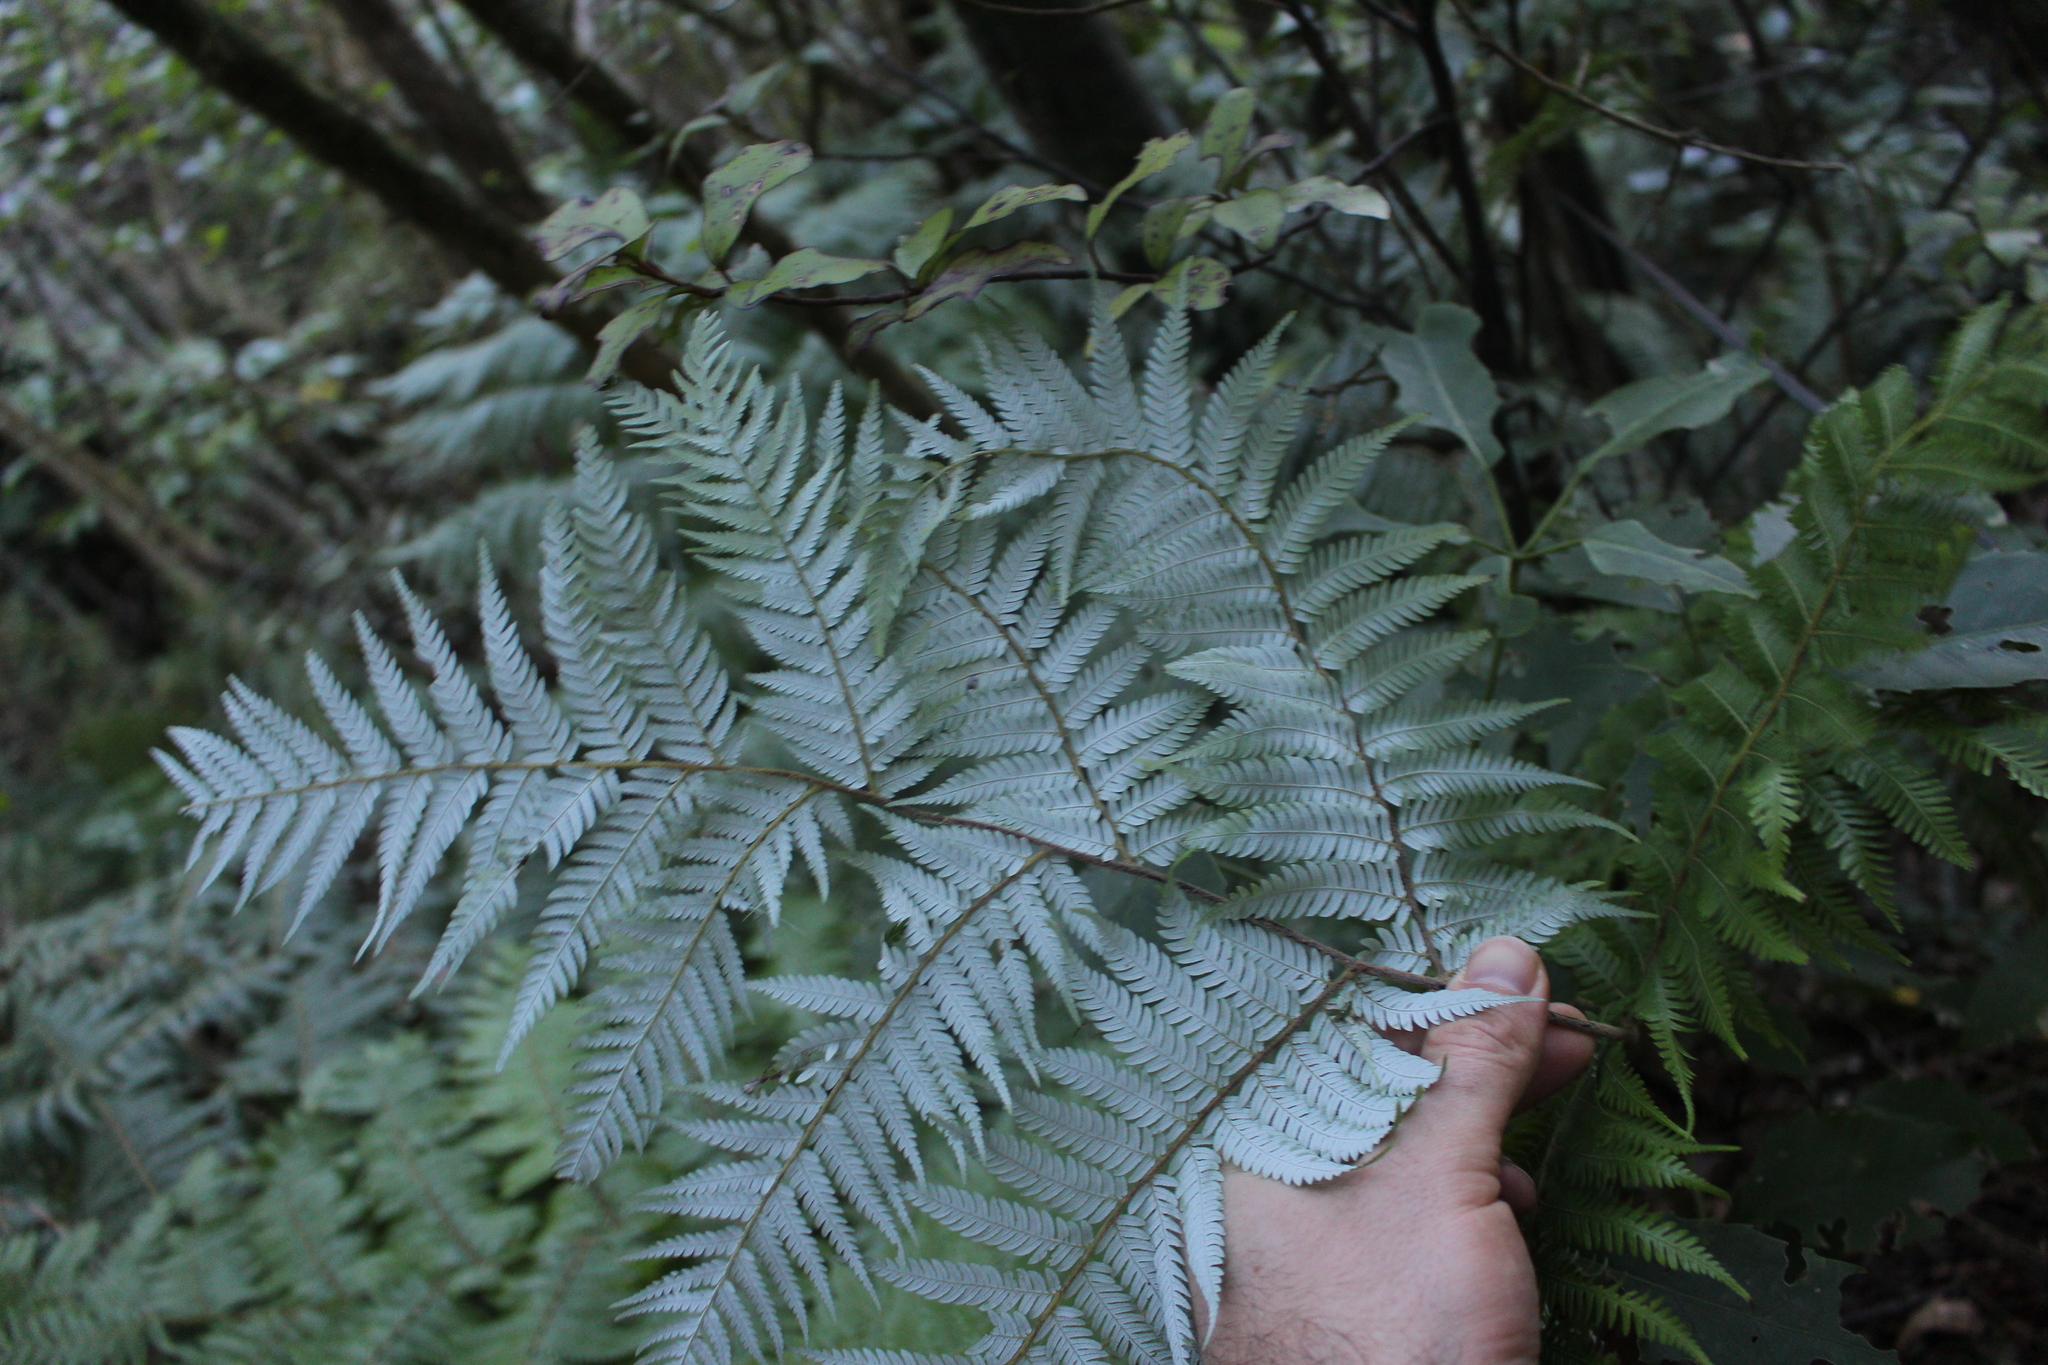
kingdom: Plantae
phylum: Tracheophyta
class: Polypodiopsida
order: Cyatheales
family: Cyatheaceae
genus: Alsophila
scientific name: Alsophila dealbata
